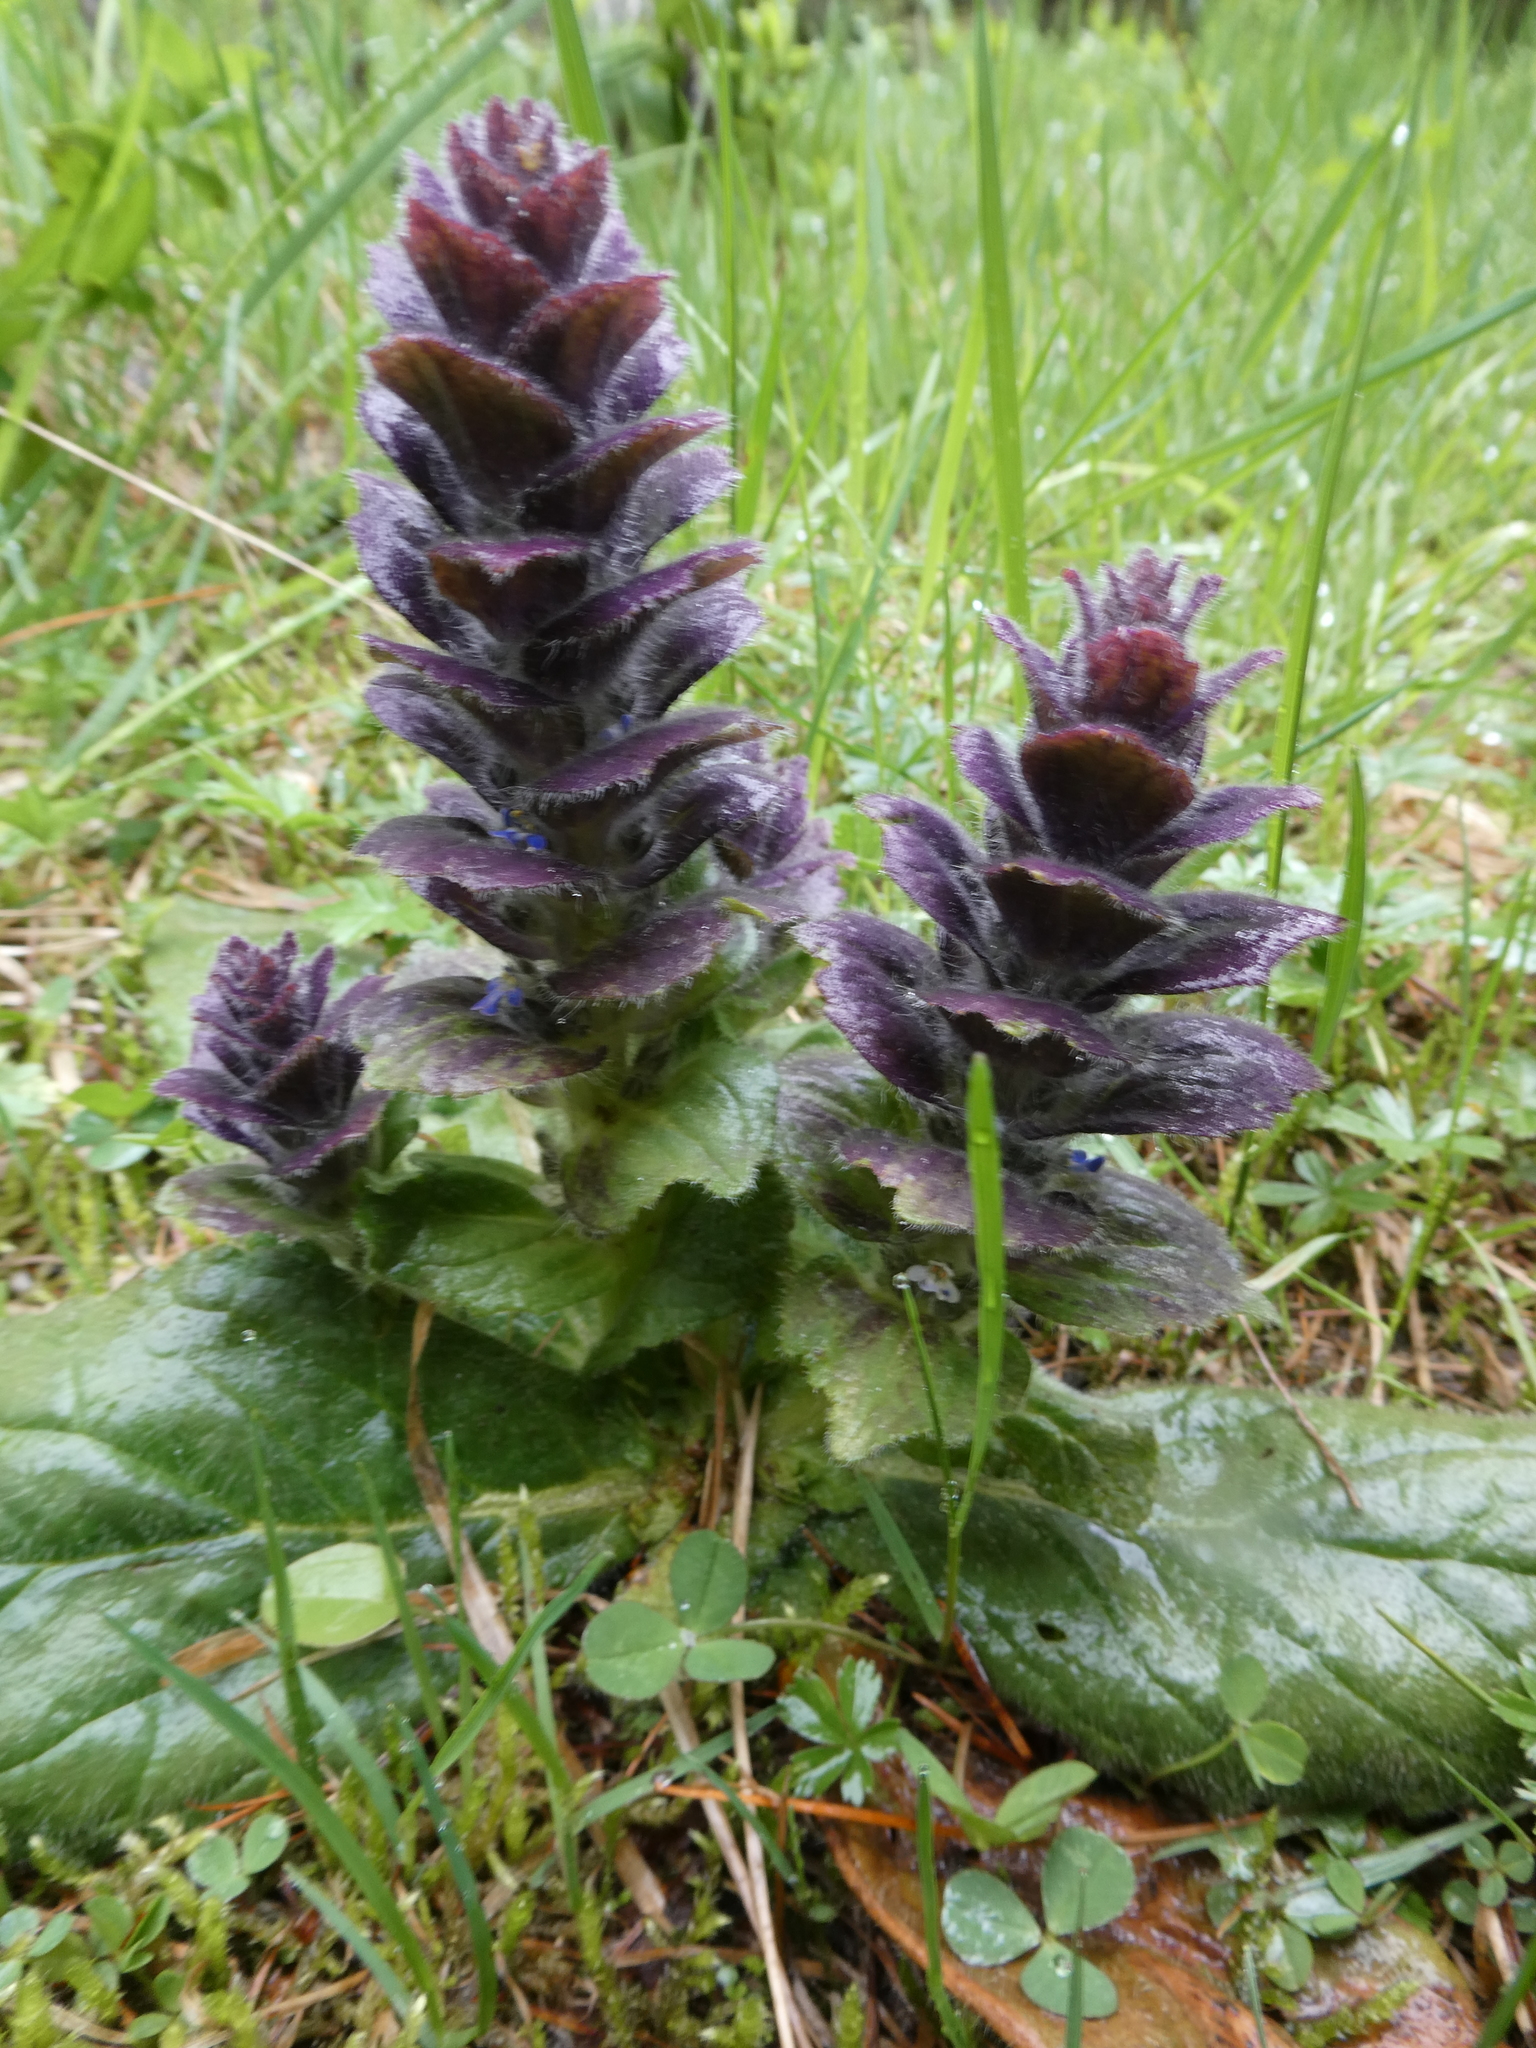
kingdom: Plantae
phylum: Tracheophyta
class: Magnoliopsida
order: Lamiales
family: Lamiaceae
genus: Ajuga
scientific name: Ajuga pyramidalis
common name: Pyramid bugle
